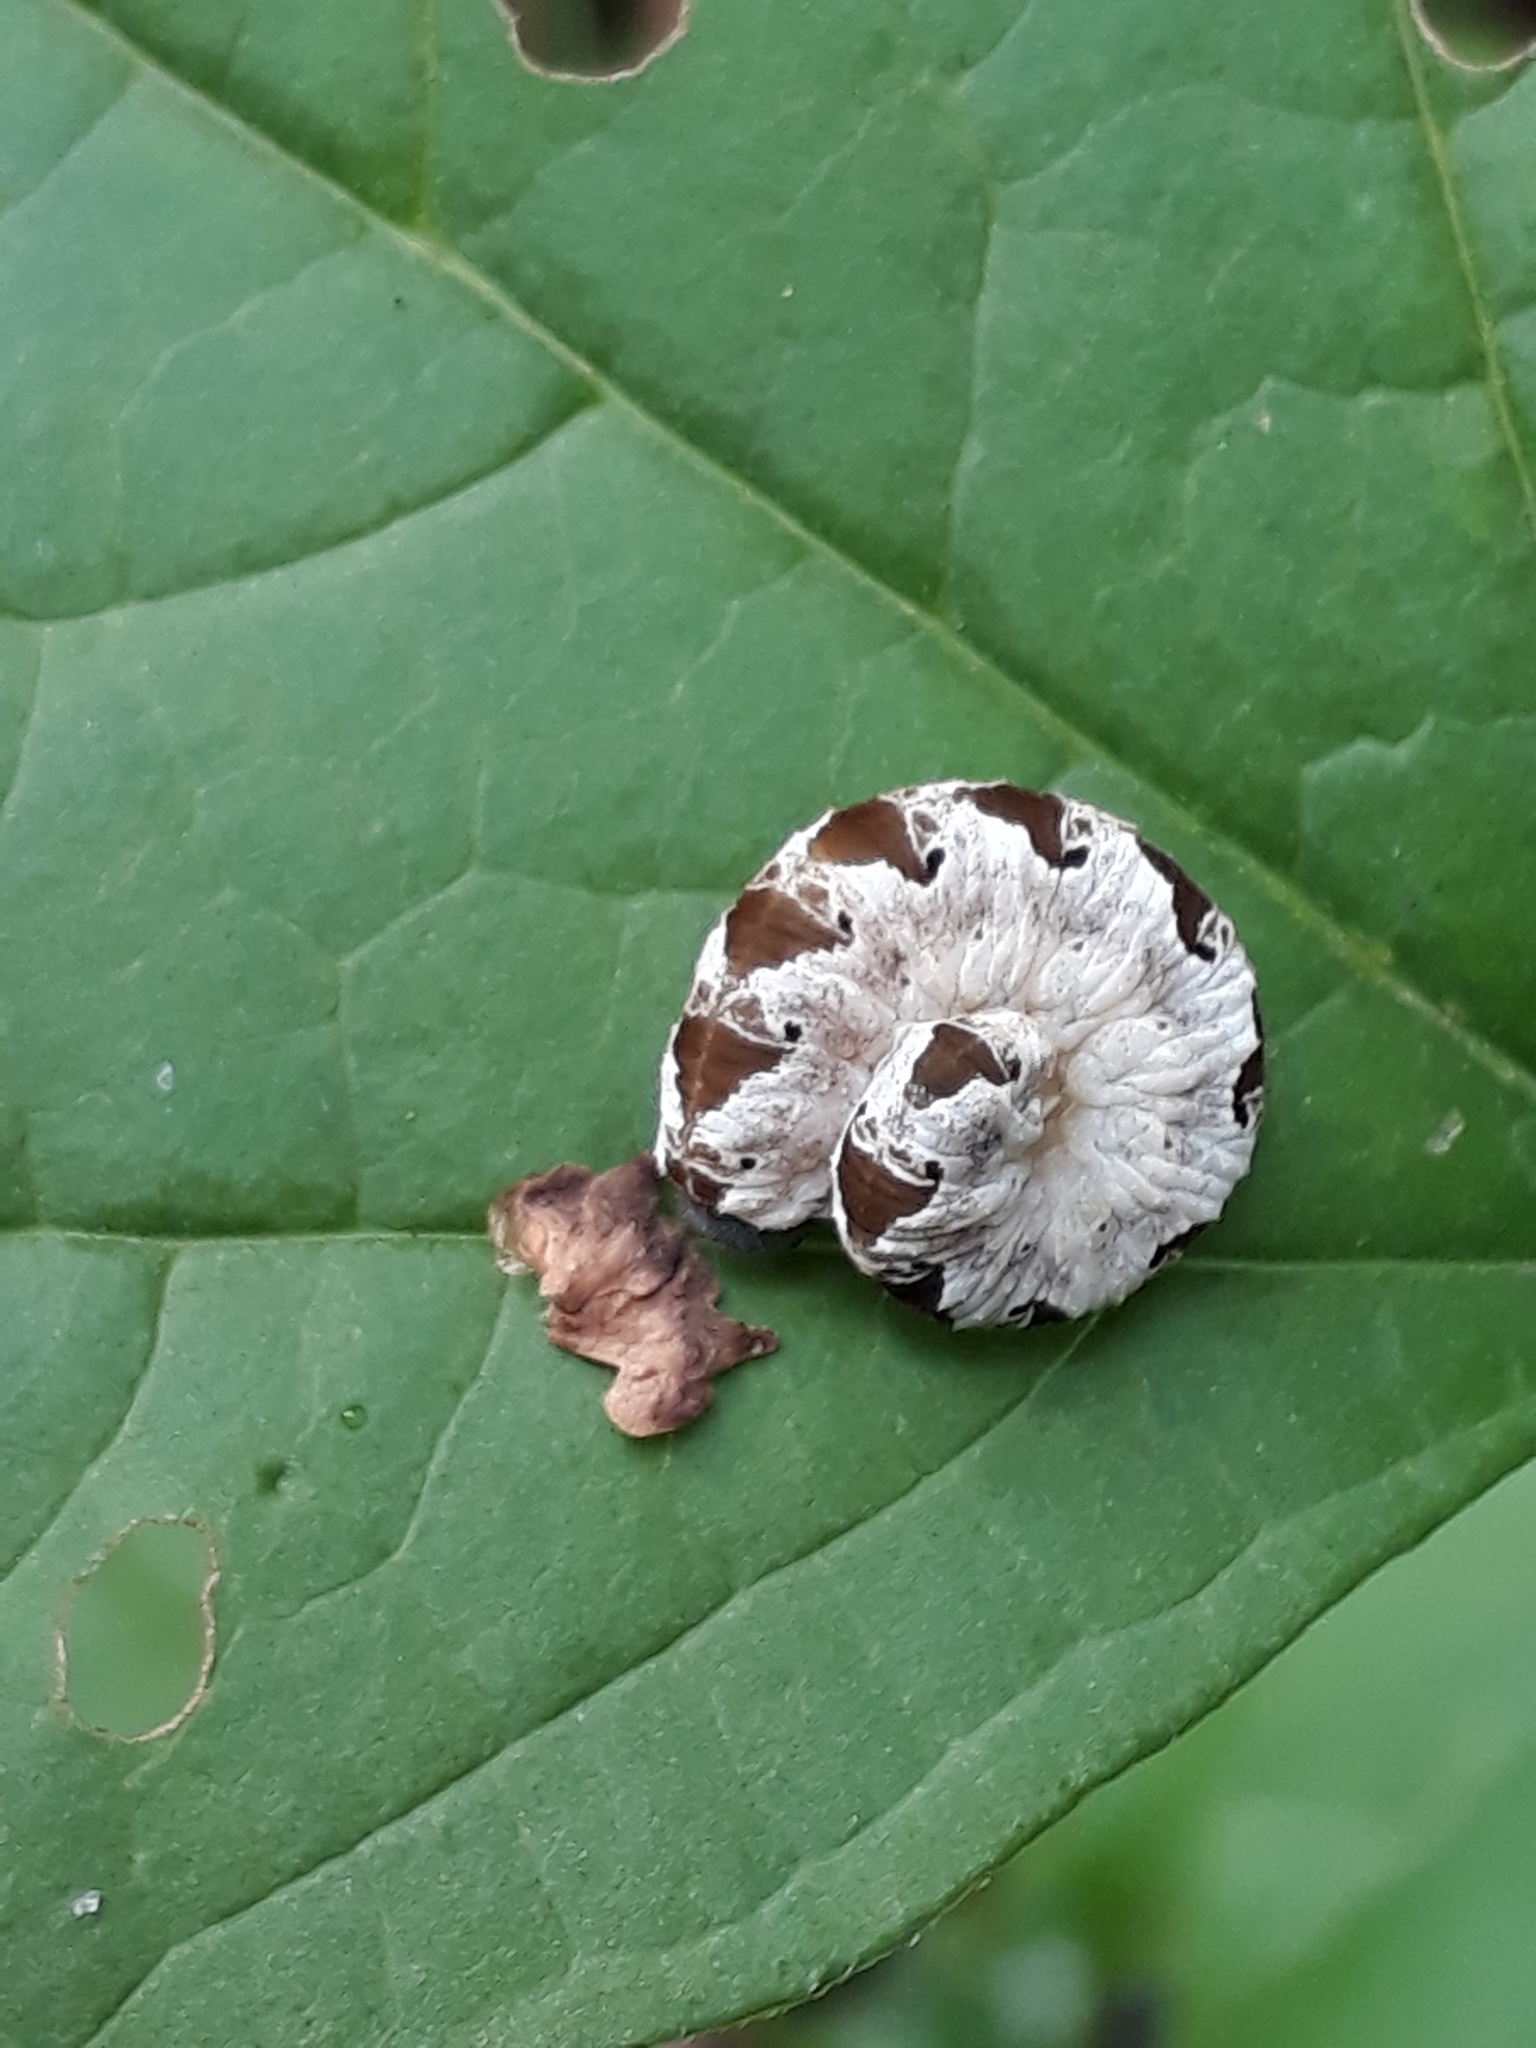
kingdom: Animalia
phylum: Arthropoda
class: Insecta
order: Hymenoptera
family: Tenthredinidae
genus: Tenthredo
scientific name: Tenthredo vespa
